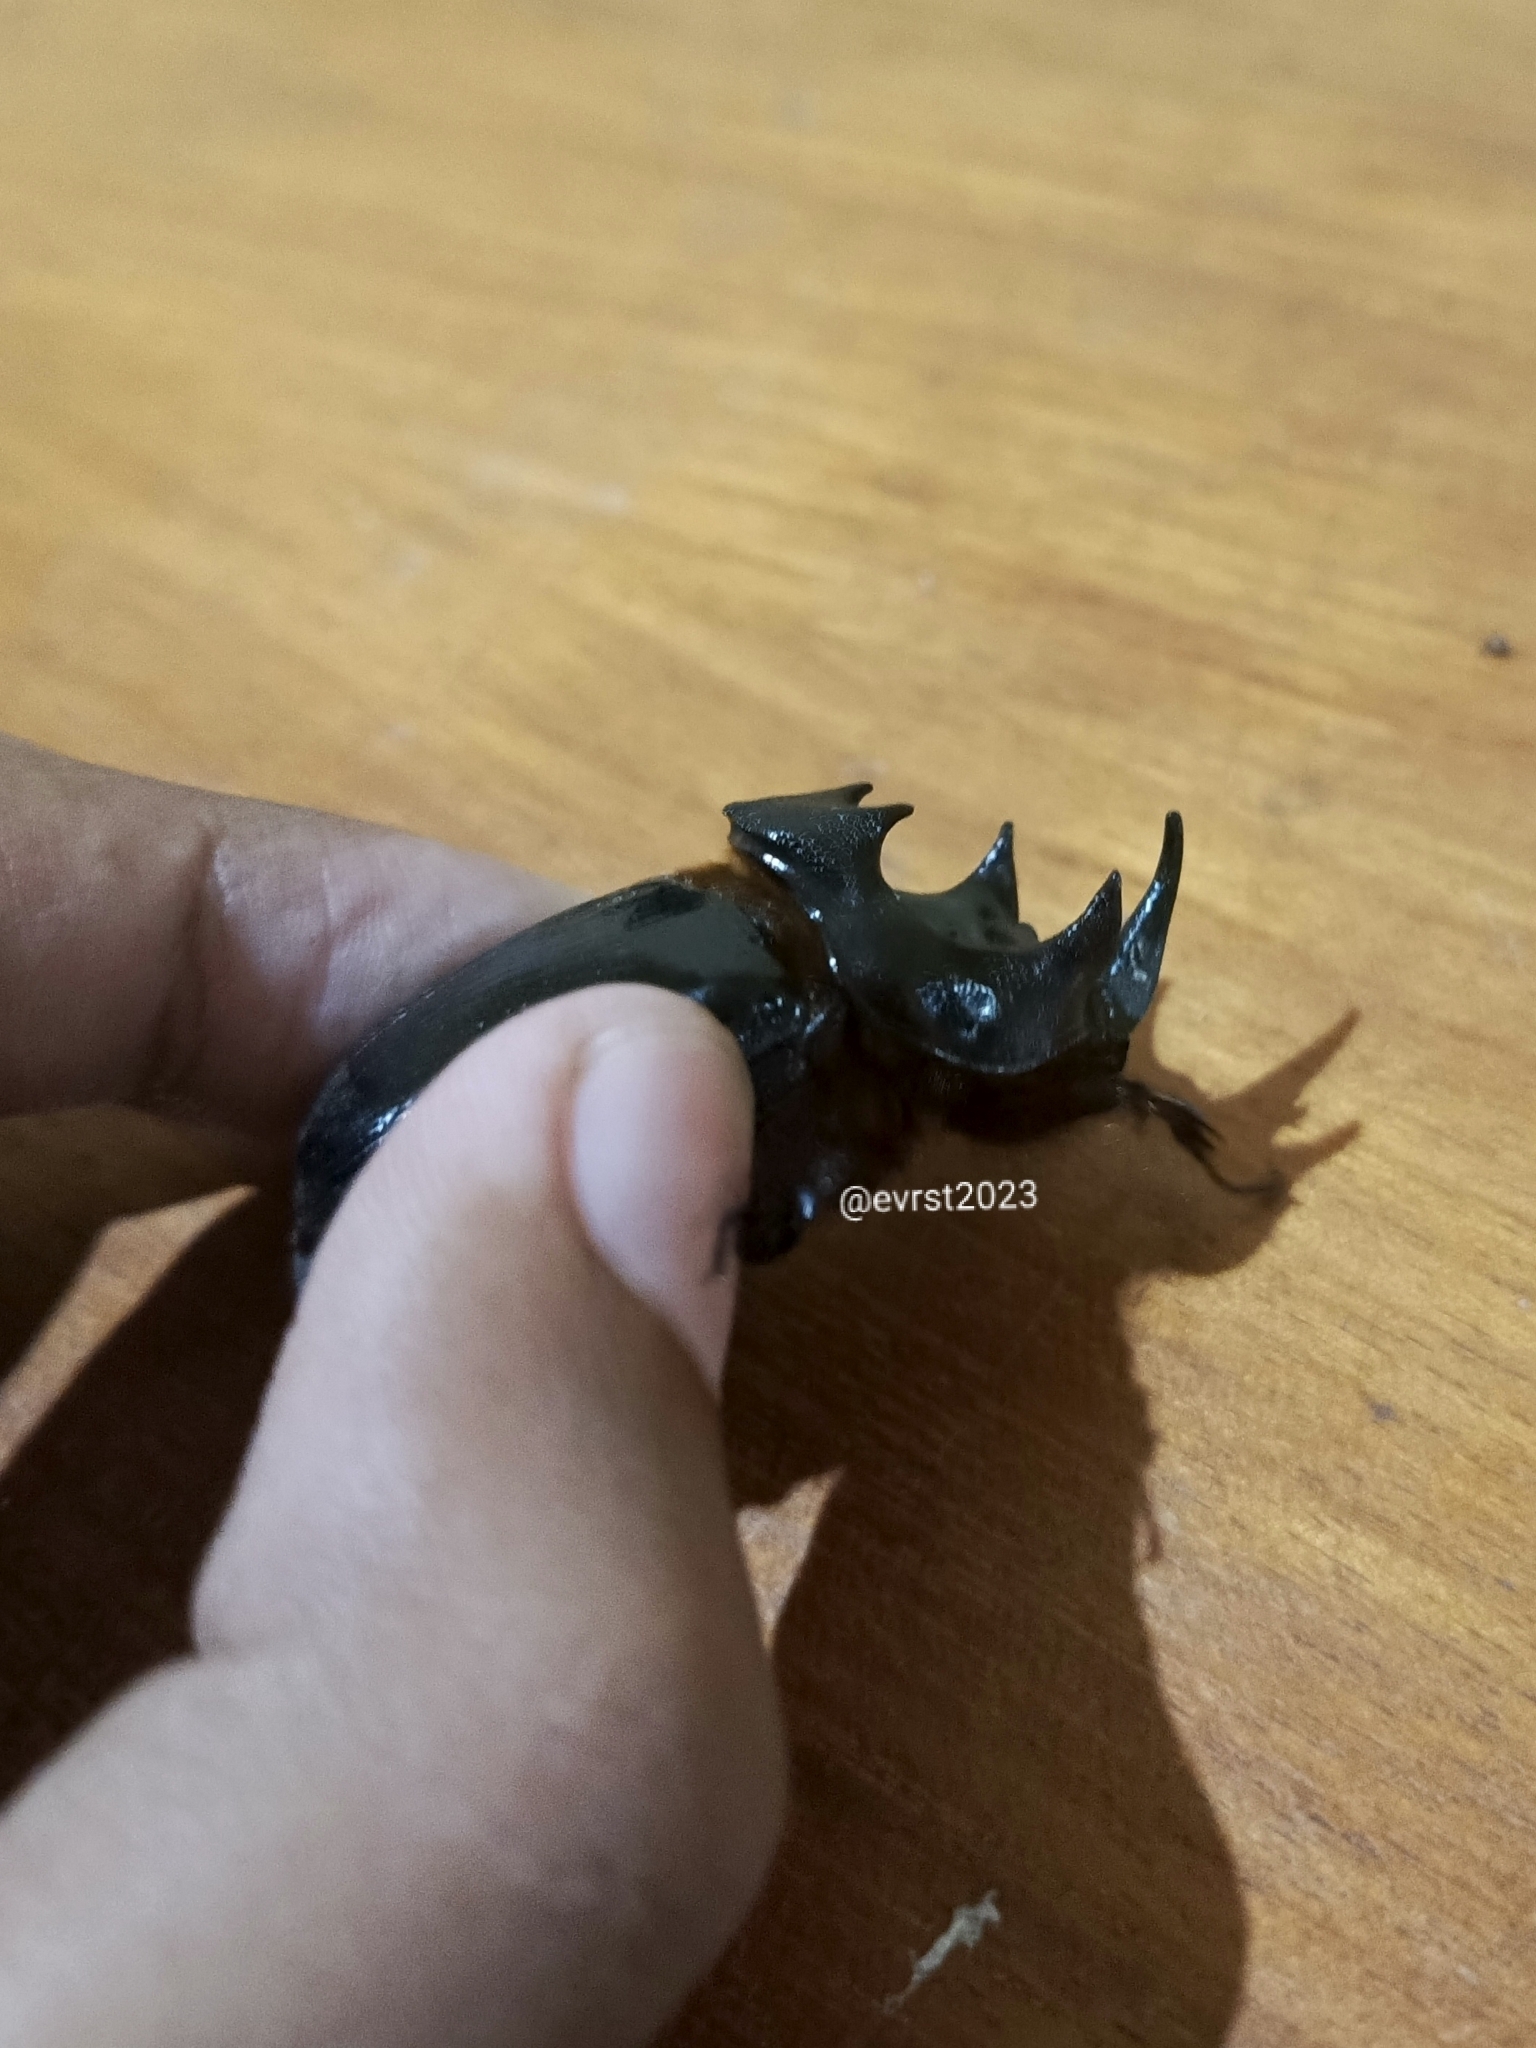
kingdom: Animalia
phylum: Arthropoda
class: Insecta
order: Coleoptera
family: Scarabaeidae
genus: Dipelicus
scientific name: Dipelicus cantori
